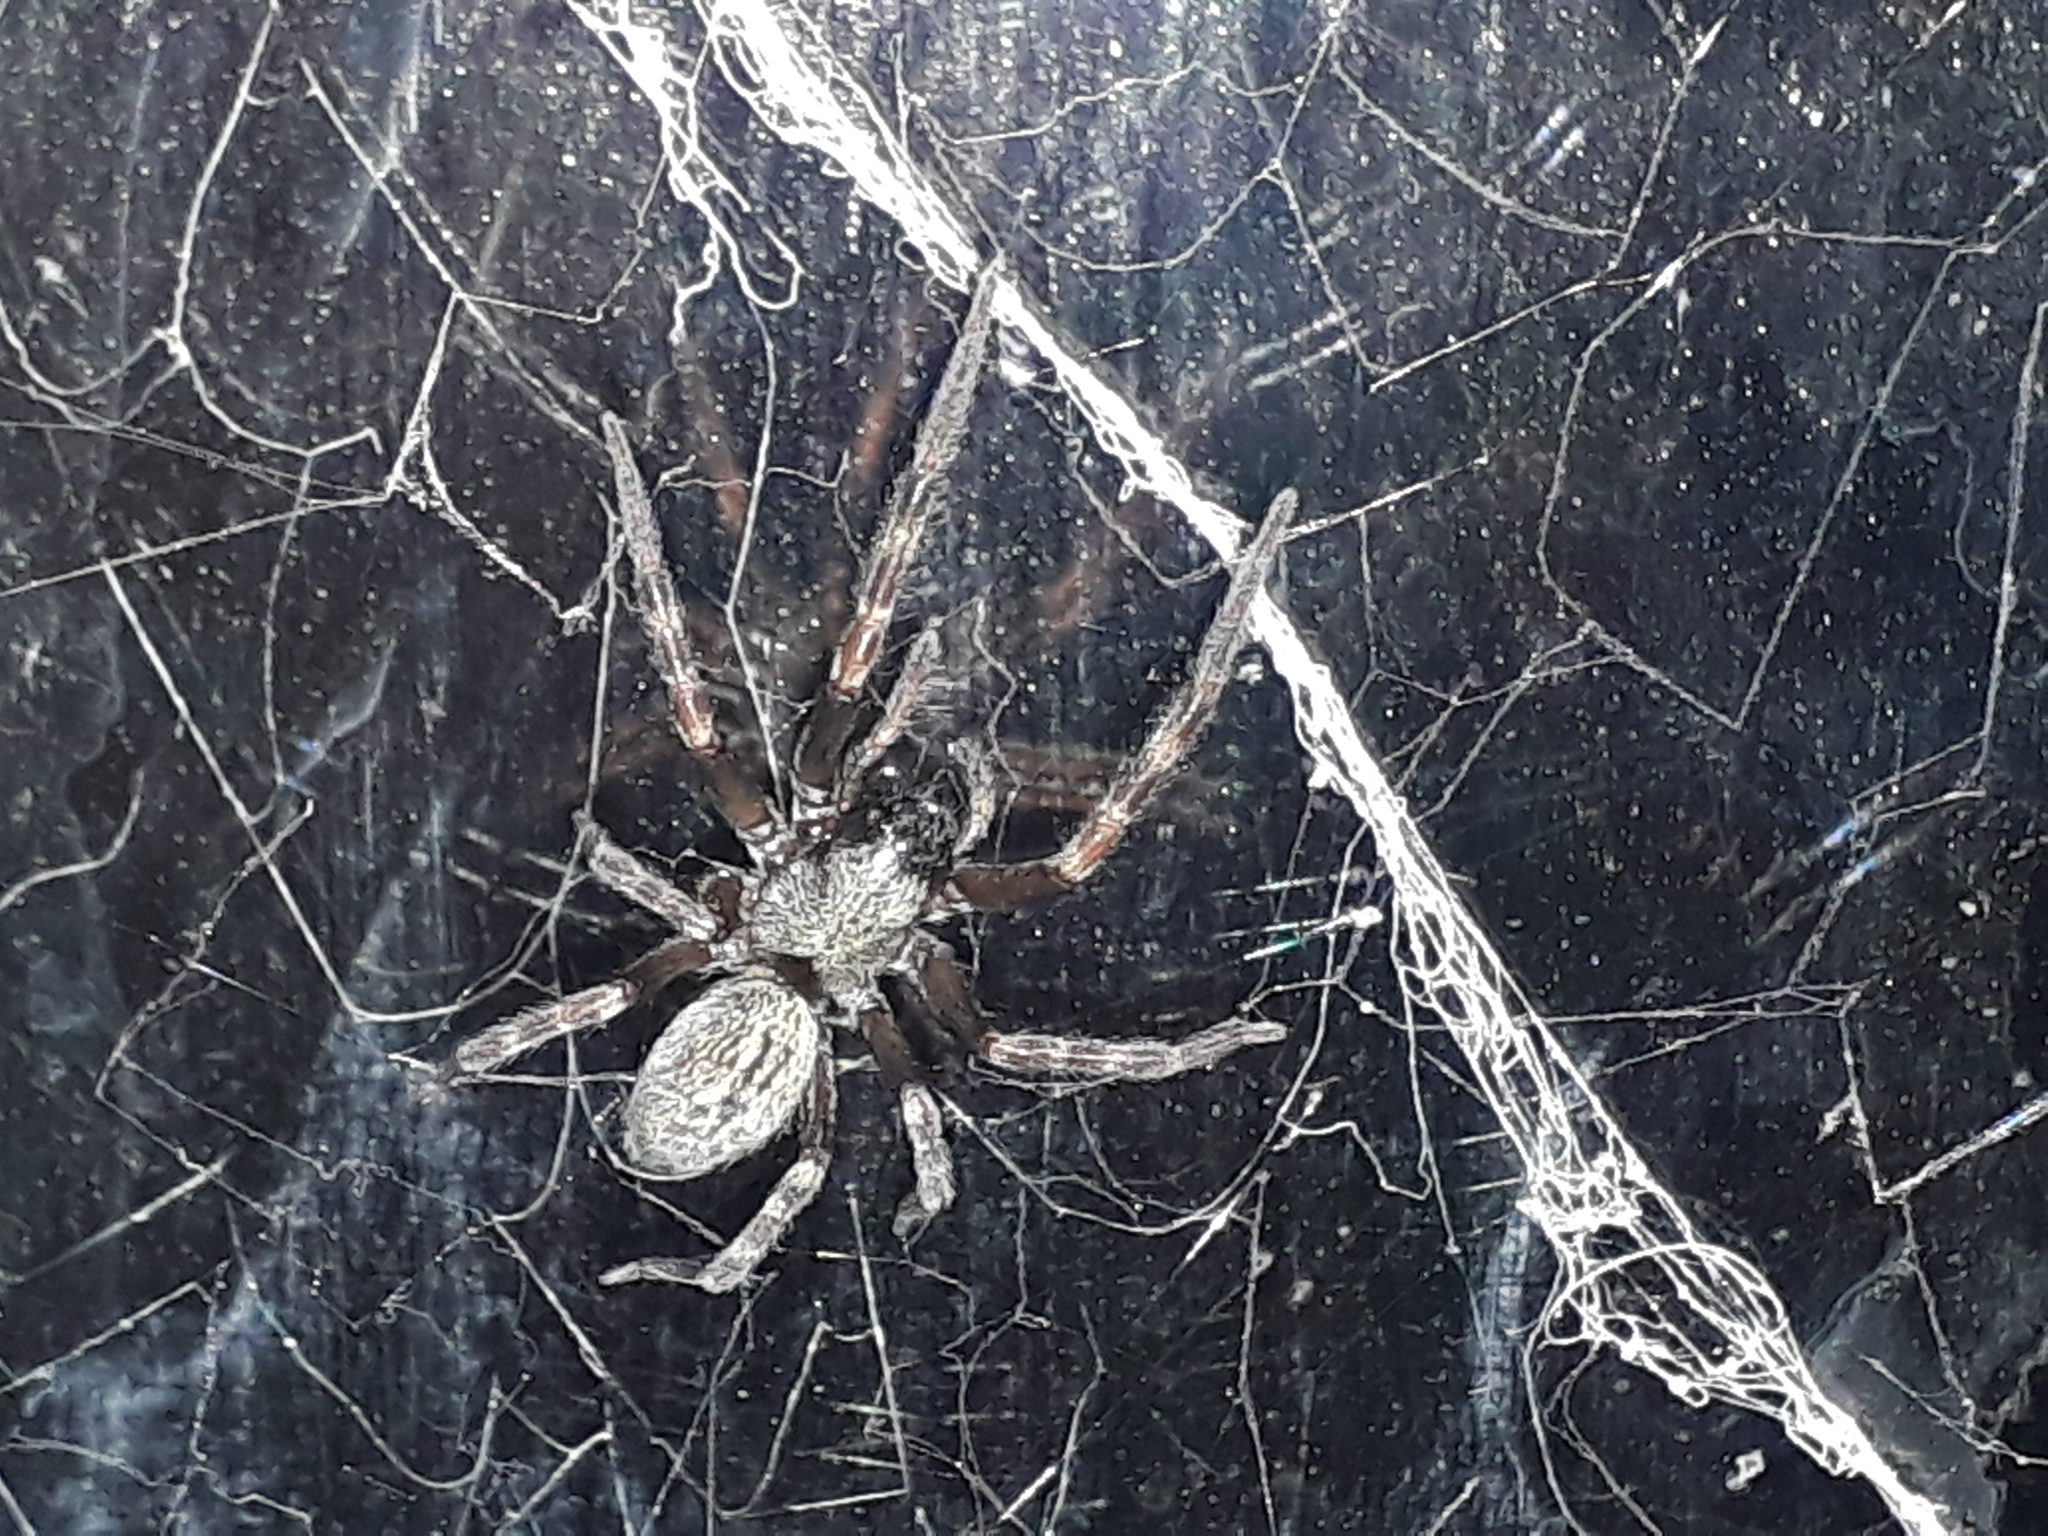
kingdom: Animalia
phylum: Arthropoda
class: Arachnida
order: Araneae
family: Desidae
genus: Badumna
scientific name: Badumna longinqua
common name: Gray house spider
